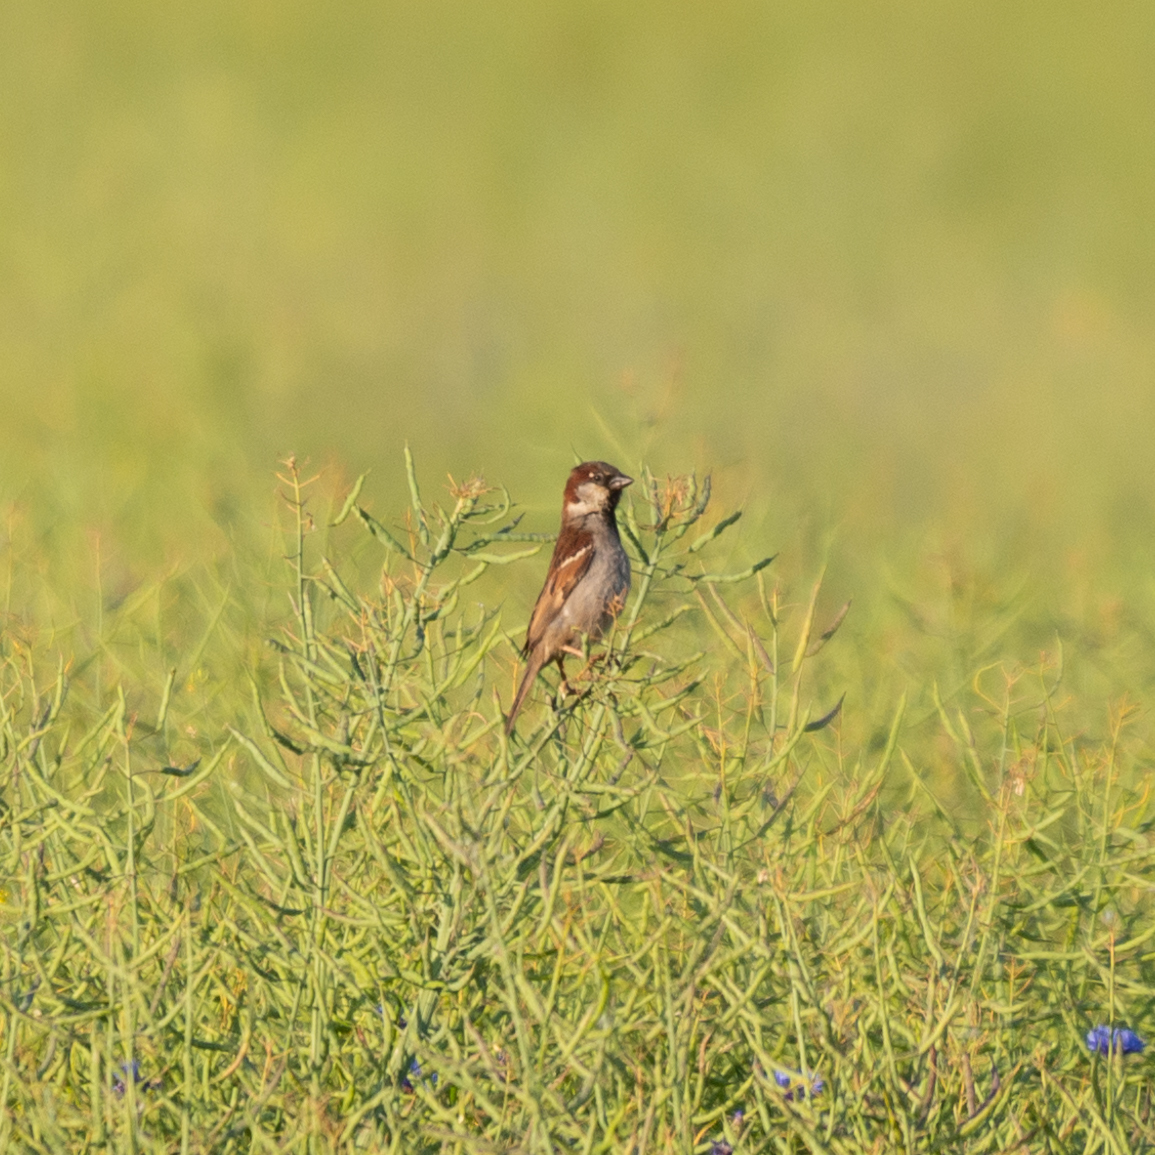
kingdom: Animalia
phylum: Chordata
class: Aves
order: Passeriformes
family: Passeridae
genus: Passer
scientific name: Passer domesticus
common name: House sparrow
